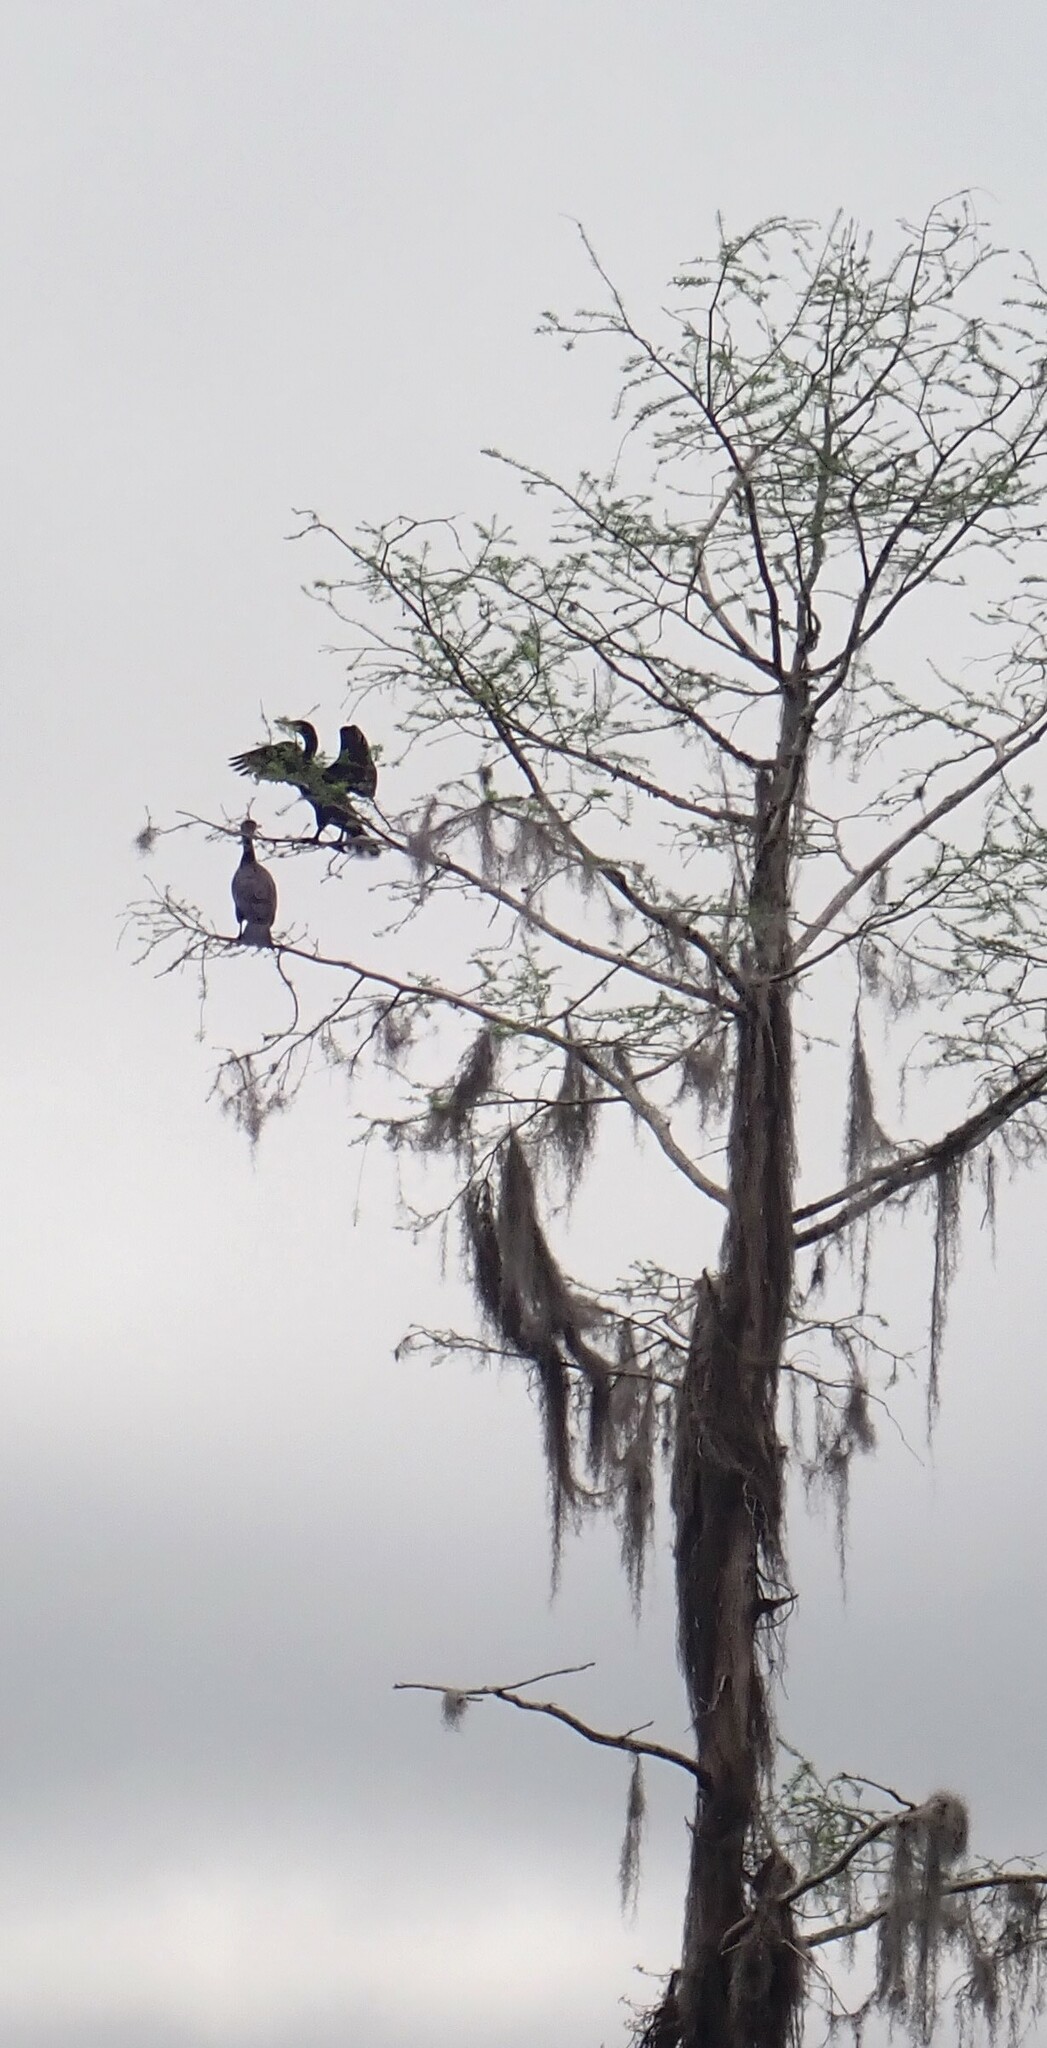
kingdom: Animalia
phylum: Chordata
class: Aves
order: Suliformes
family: Phalacrocoracidae
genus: Phalacrocorax
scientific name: Phalacrocorax auritus
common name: Double-crested cormorant
